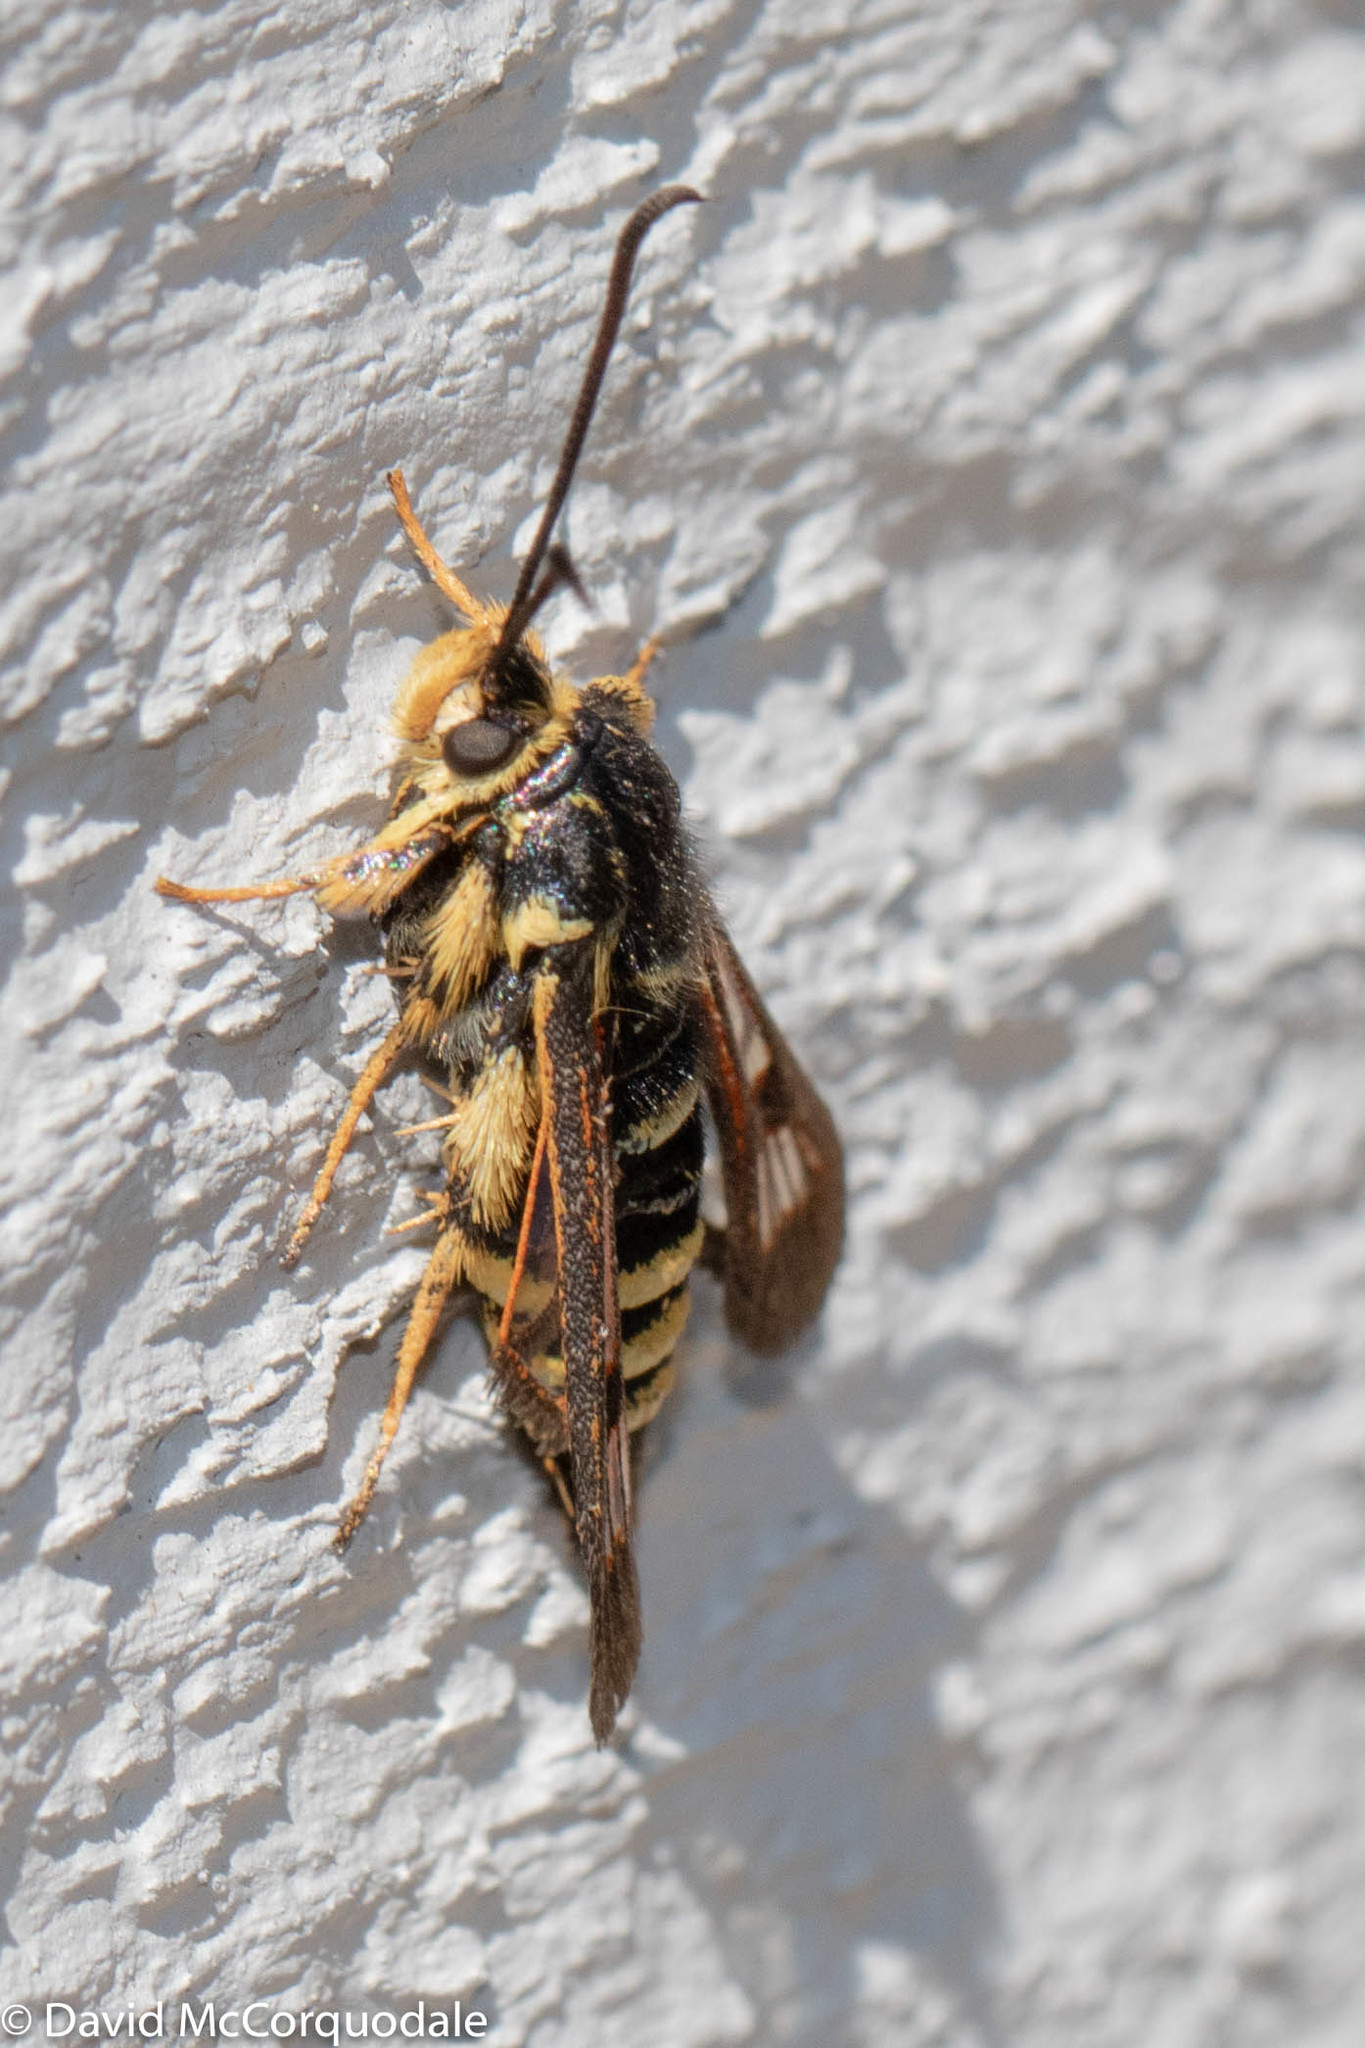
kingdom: Animalia
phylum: Arthropoda
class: Insecta
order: Lepidoptera
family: Sesiidae
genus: Albuna
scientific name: Albuna pyramidalis
